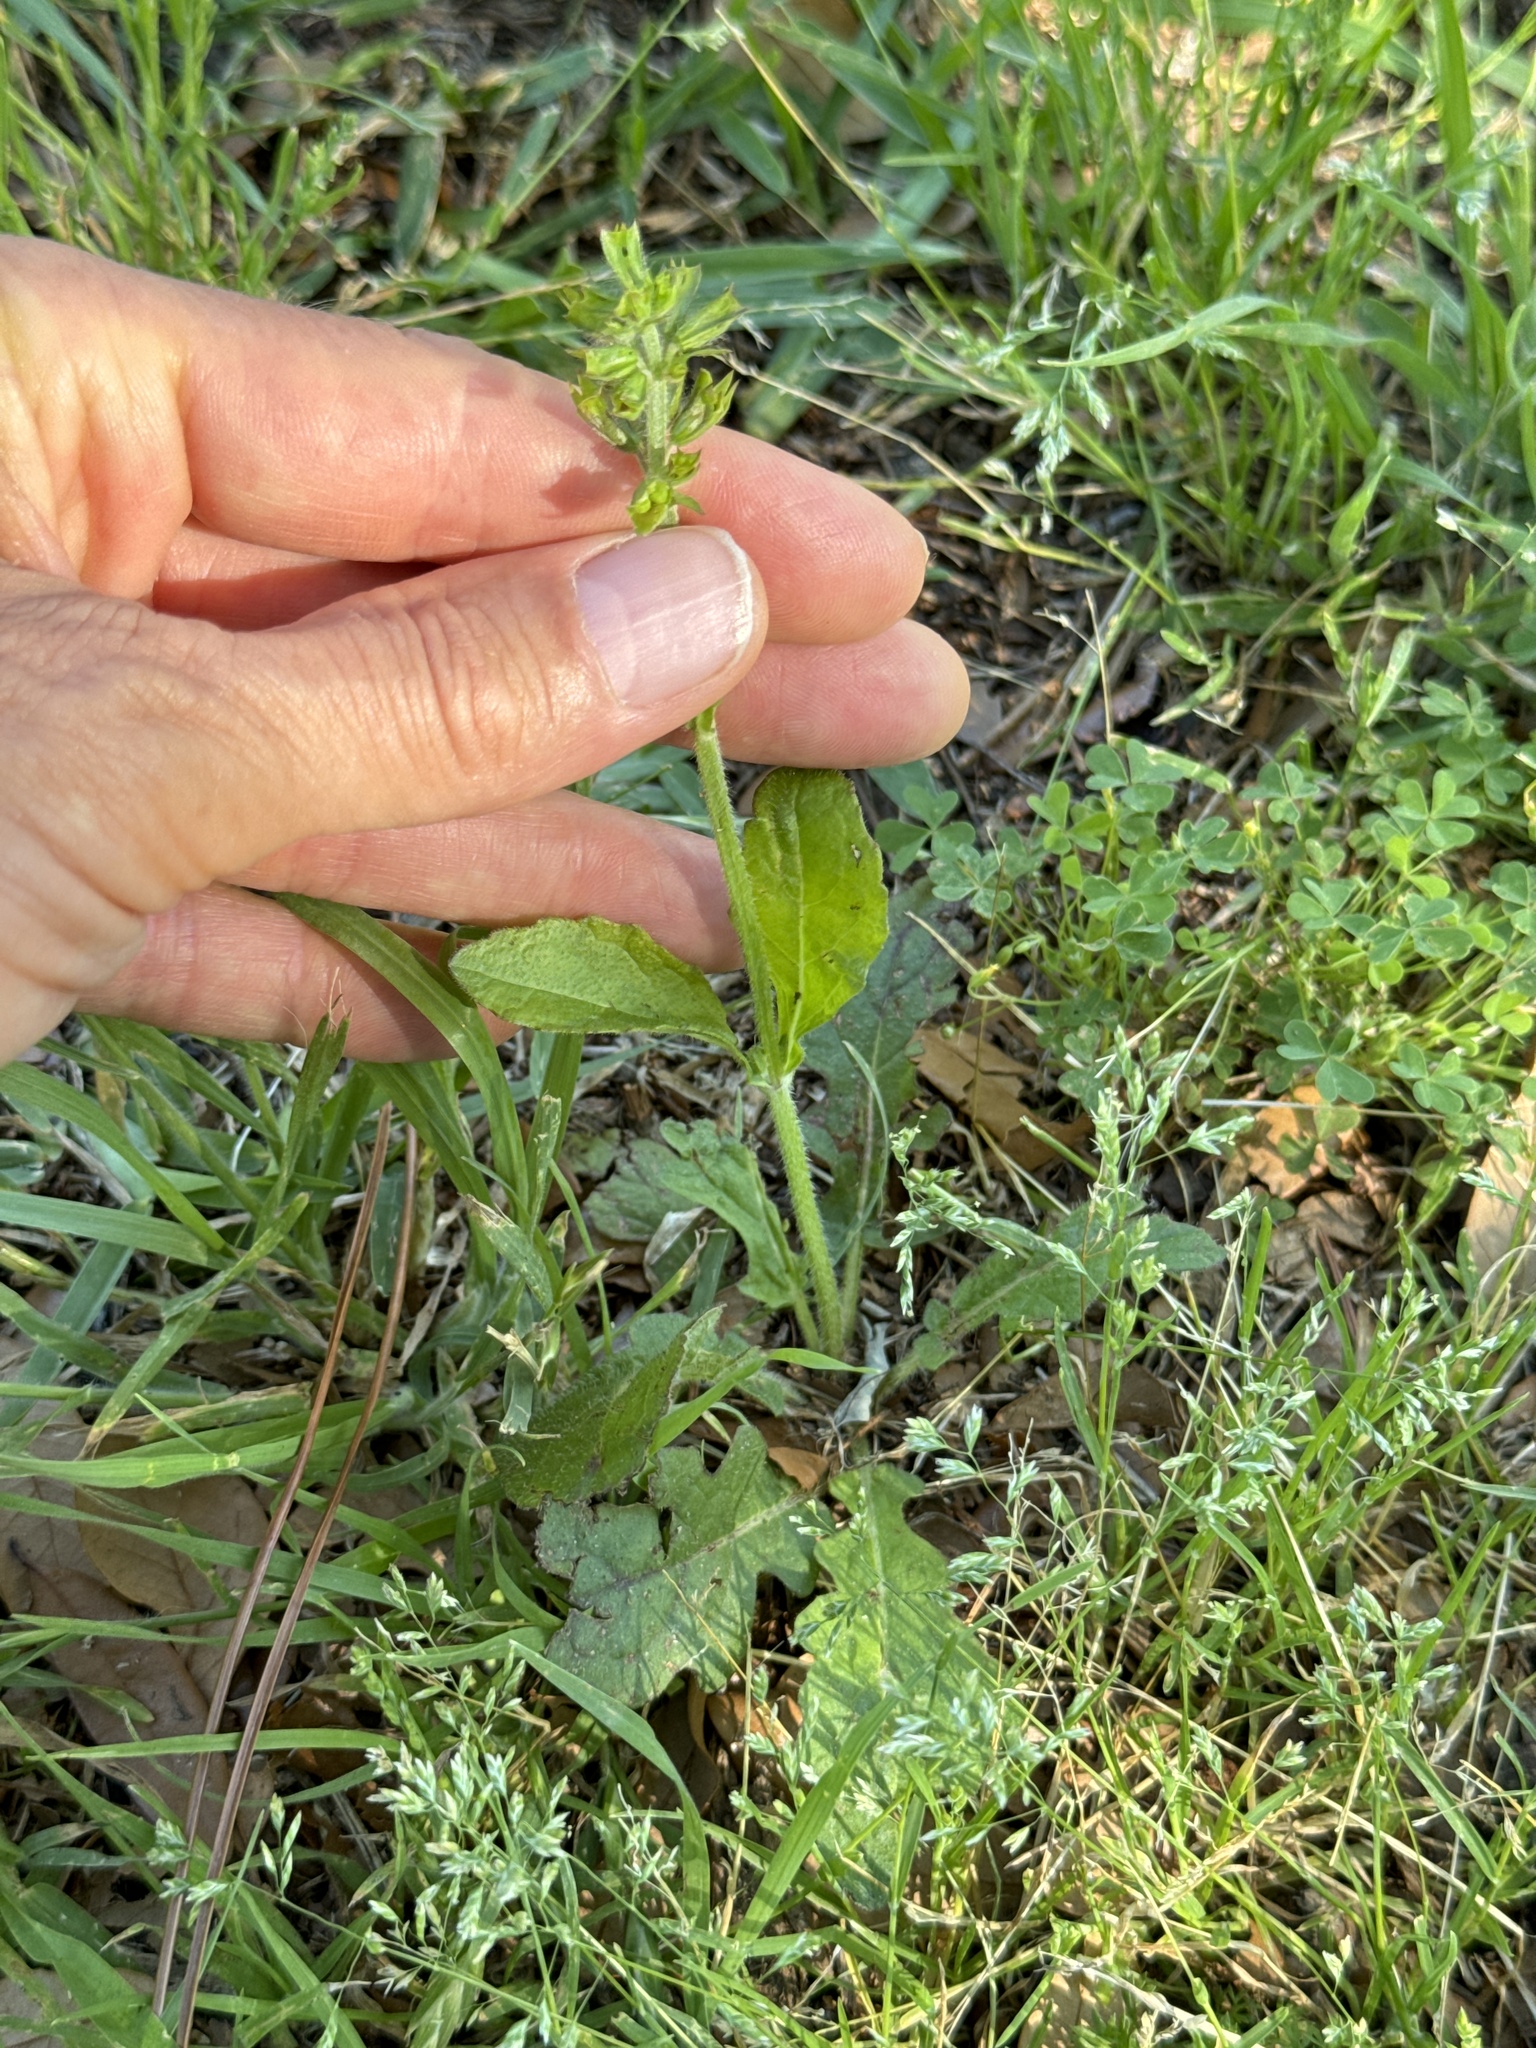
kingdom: Plantae
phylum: Tracheophyta
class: Magnoliopsida
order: Lamiales
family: Lamiaceae
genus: Salvia
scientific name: Salvia lyrata
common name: Cancerweed
